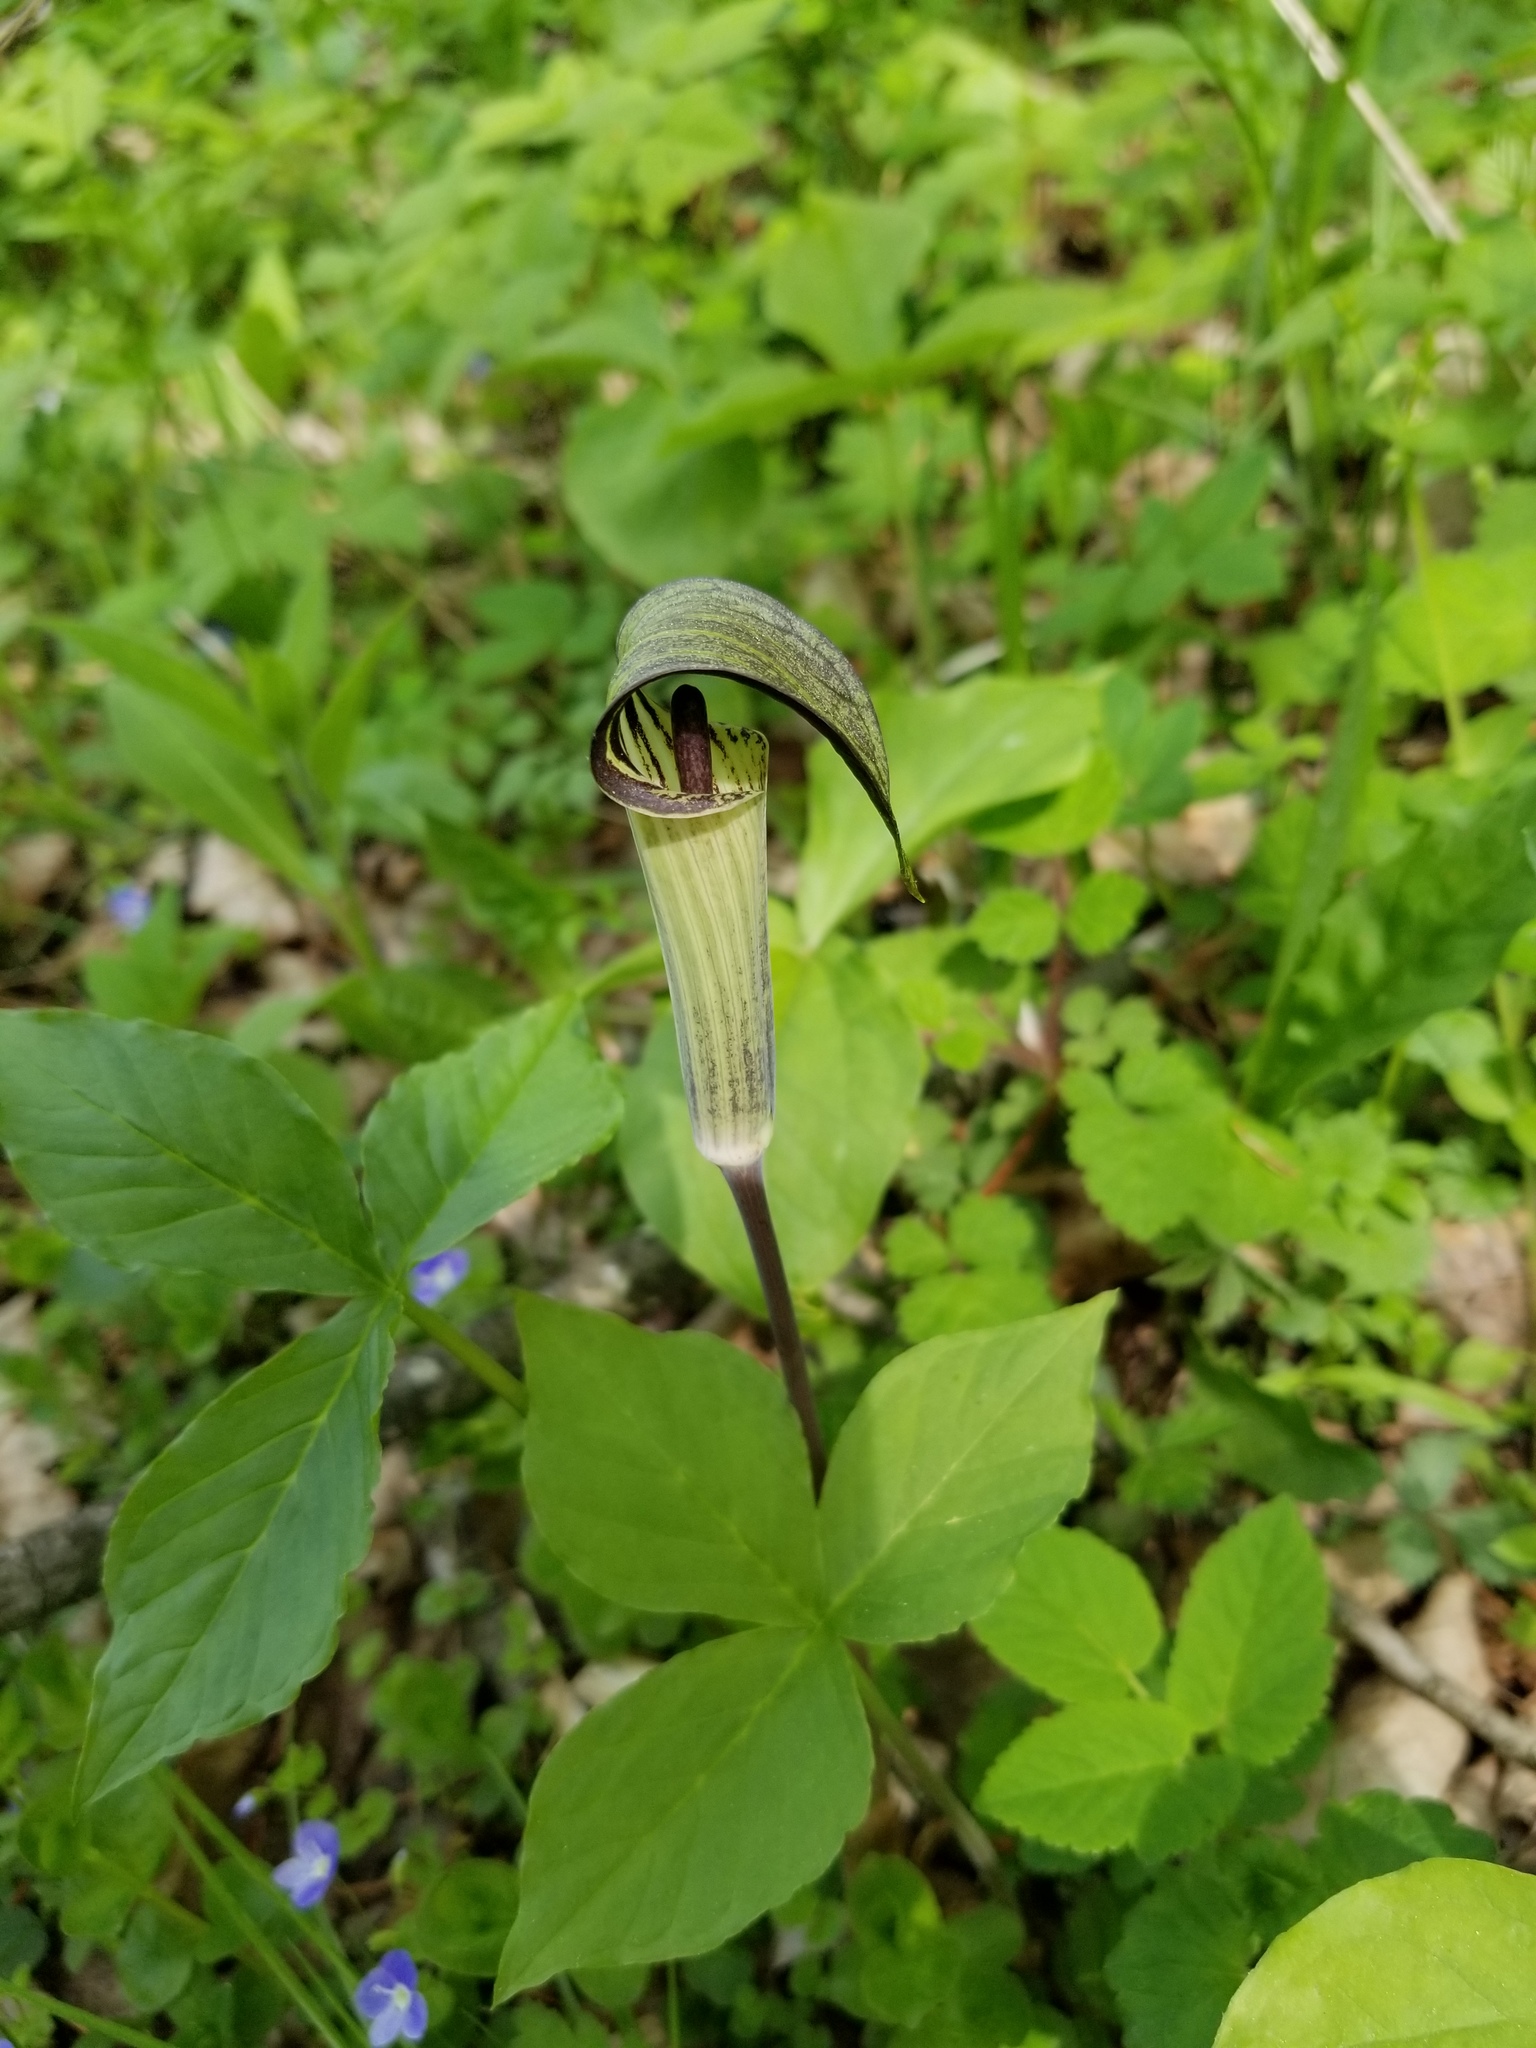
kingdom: Plantae
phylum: Tracheophyta
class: Liliopsida
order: Alismatales
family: Araceae
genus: Arisaema
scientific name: Arisaema triphyllum
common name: Jack-in-the-pulpit
